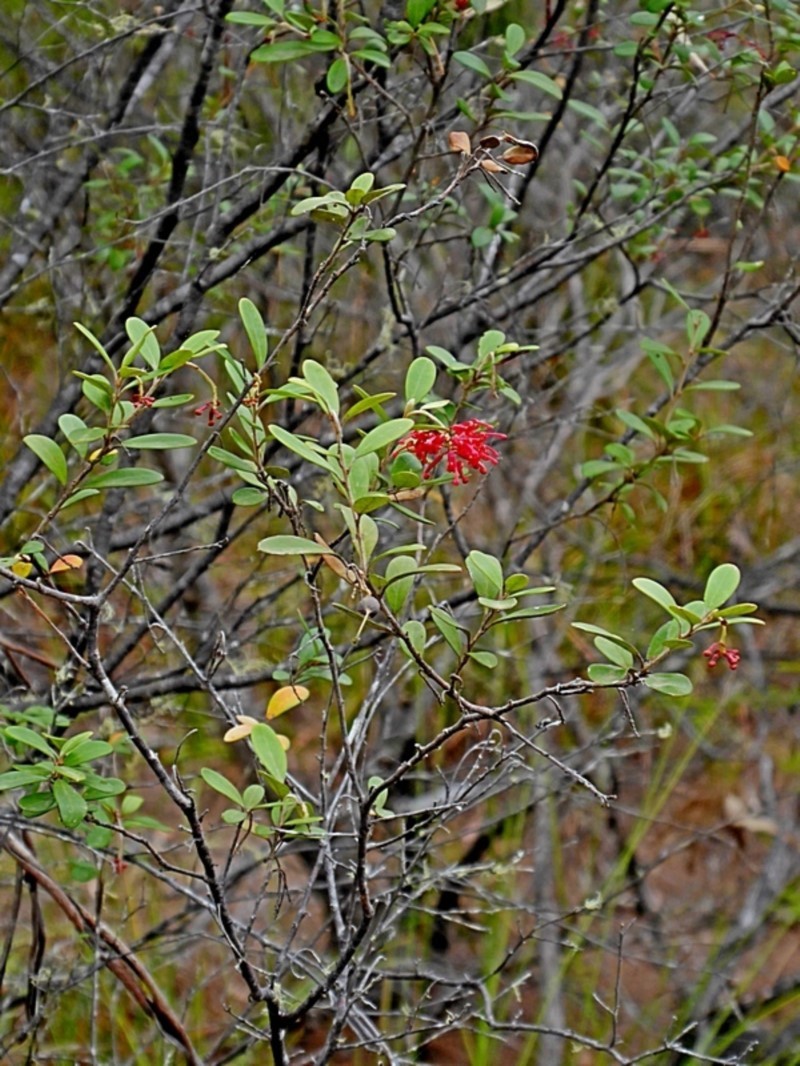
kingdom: Plantae
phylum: Tracheophyta
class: Magnoliopsida
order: Proteales
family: Proteaceae
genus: Grevillea
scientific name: Grevillea parvula
